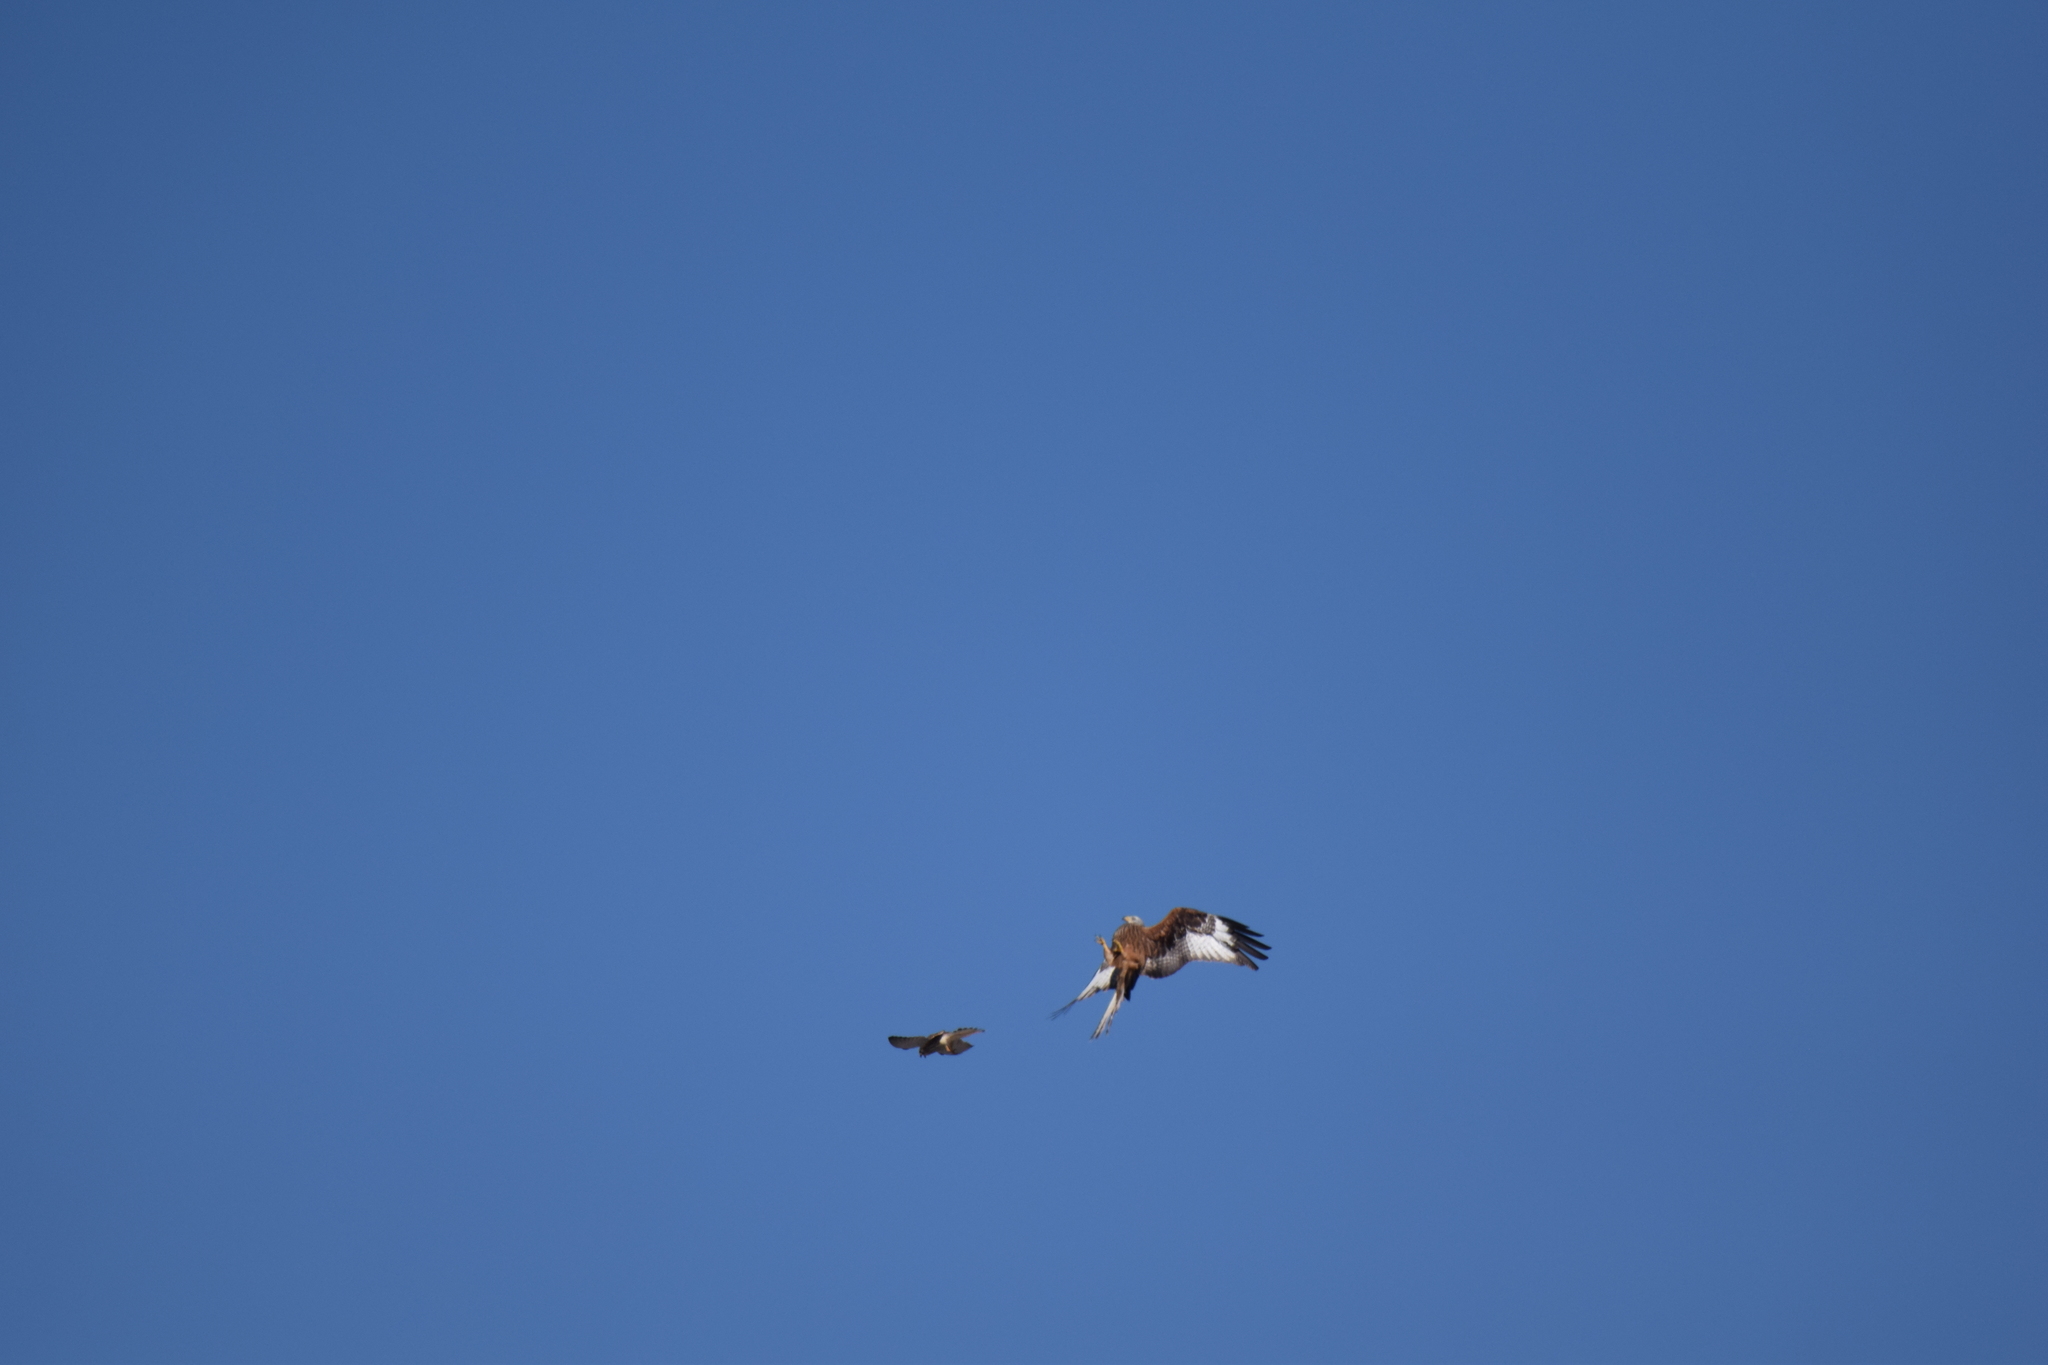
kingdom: Animalia
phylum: Chordata
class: Aves
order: Accipitriformes
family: Accipitridae
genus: Milvus
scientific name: Milvus milvus
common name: Red kite
